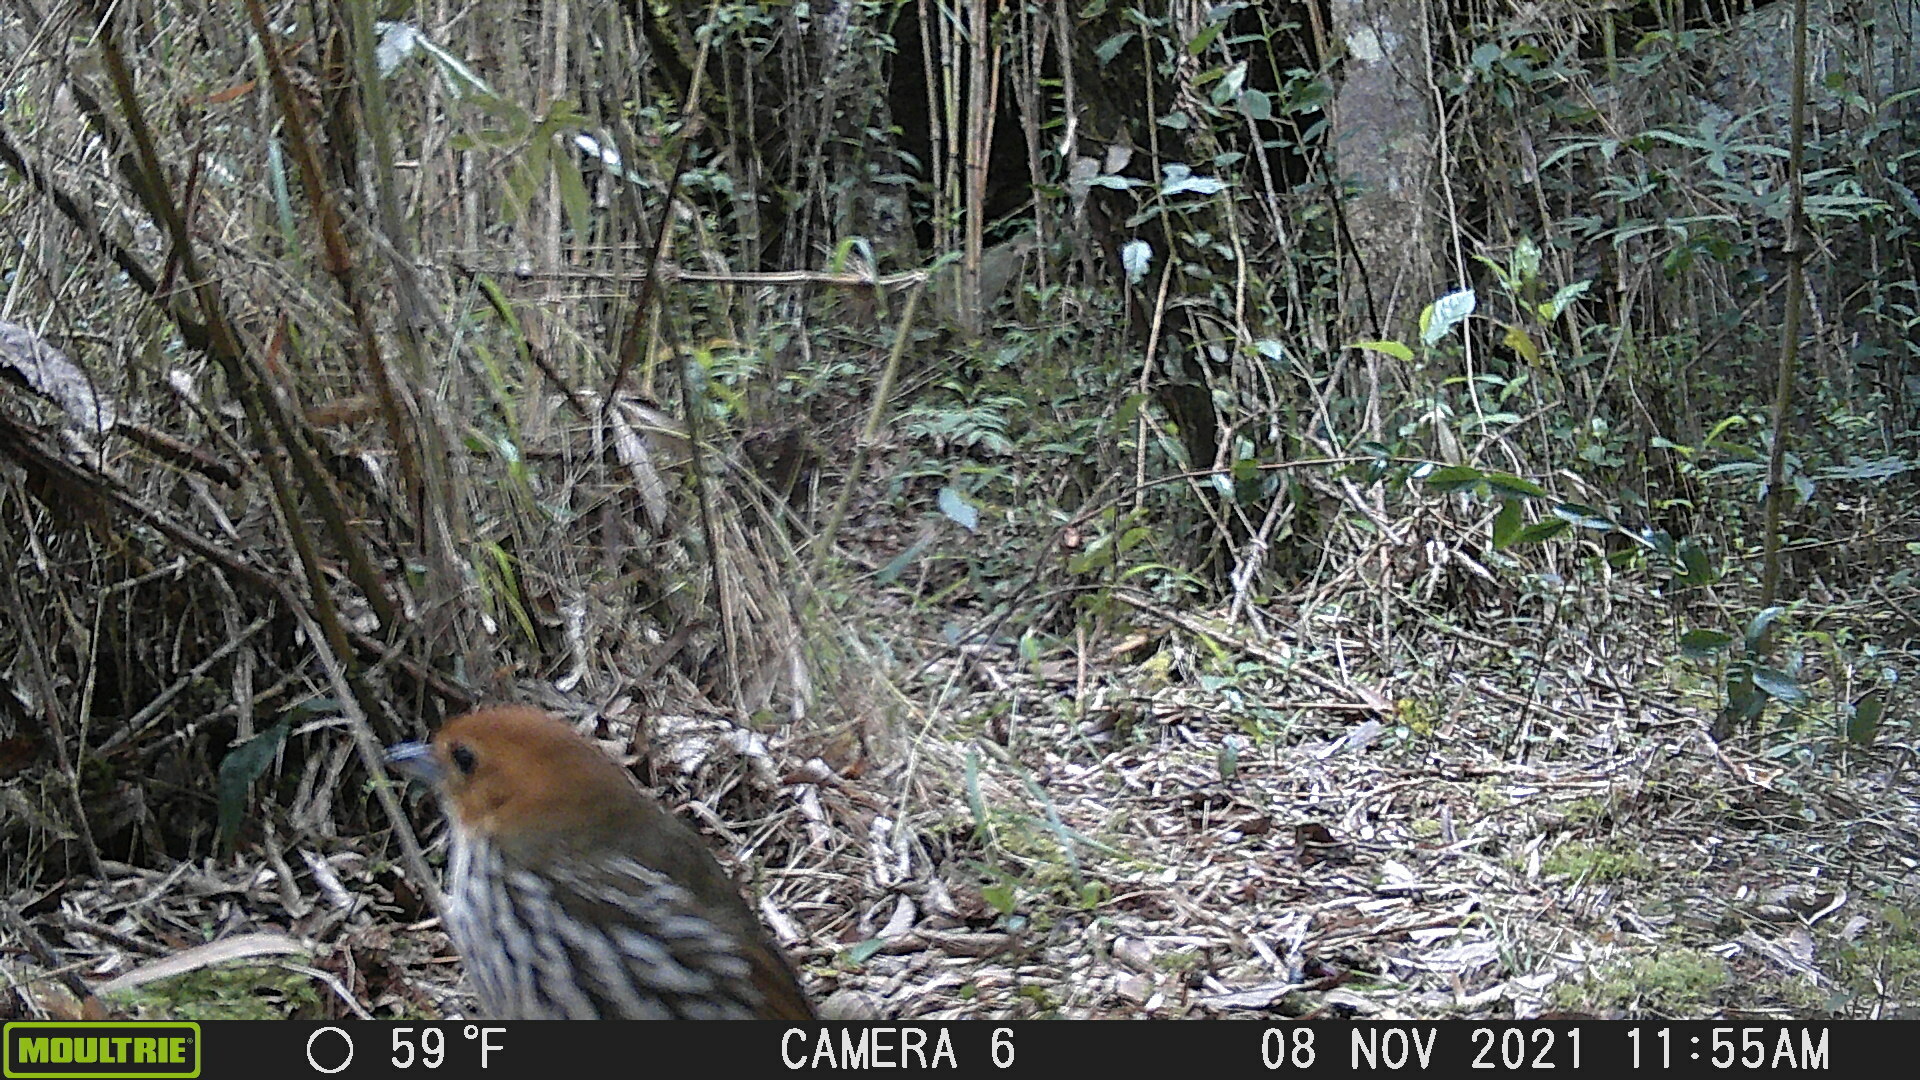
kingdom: Animalia
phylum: Chordata
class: Aves
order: Passeriformes
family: Grallariidae
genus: Grallaria
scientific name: Grallaria ruficapilla
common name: Chestnut-crowned antpitta
